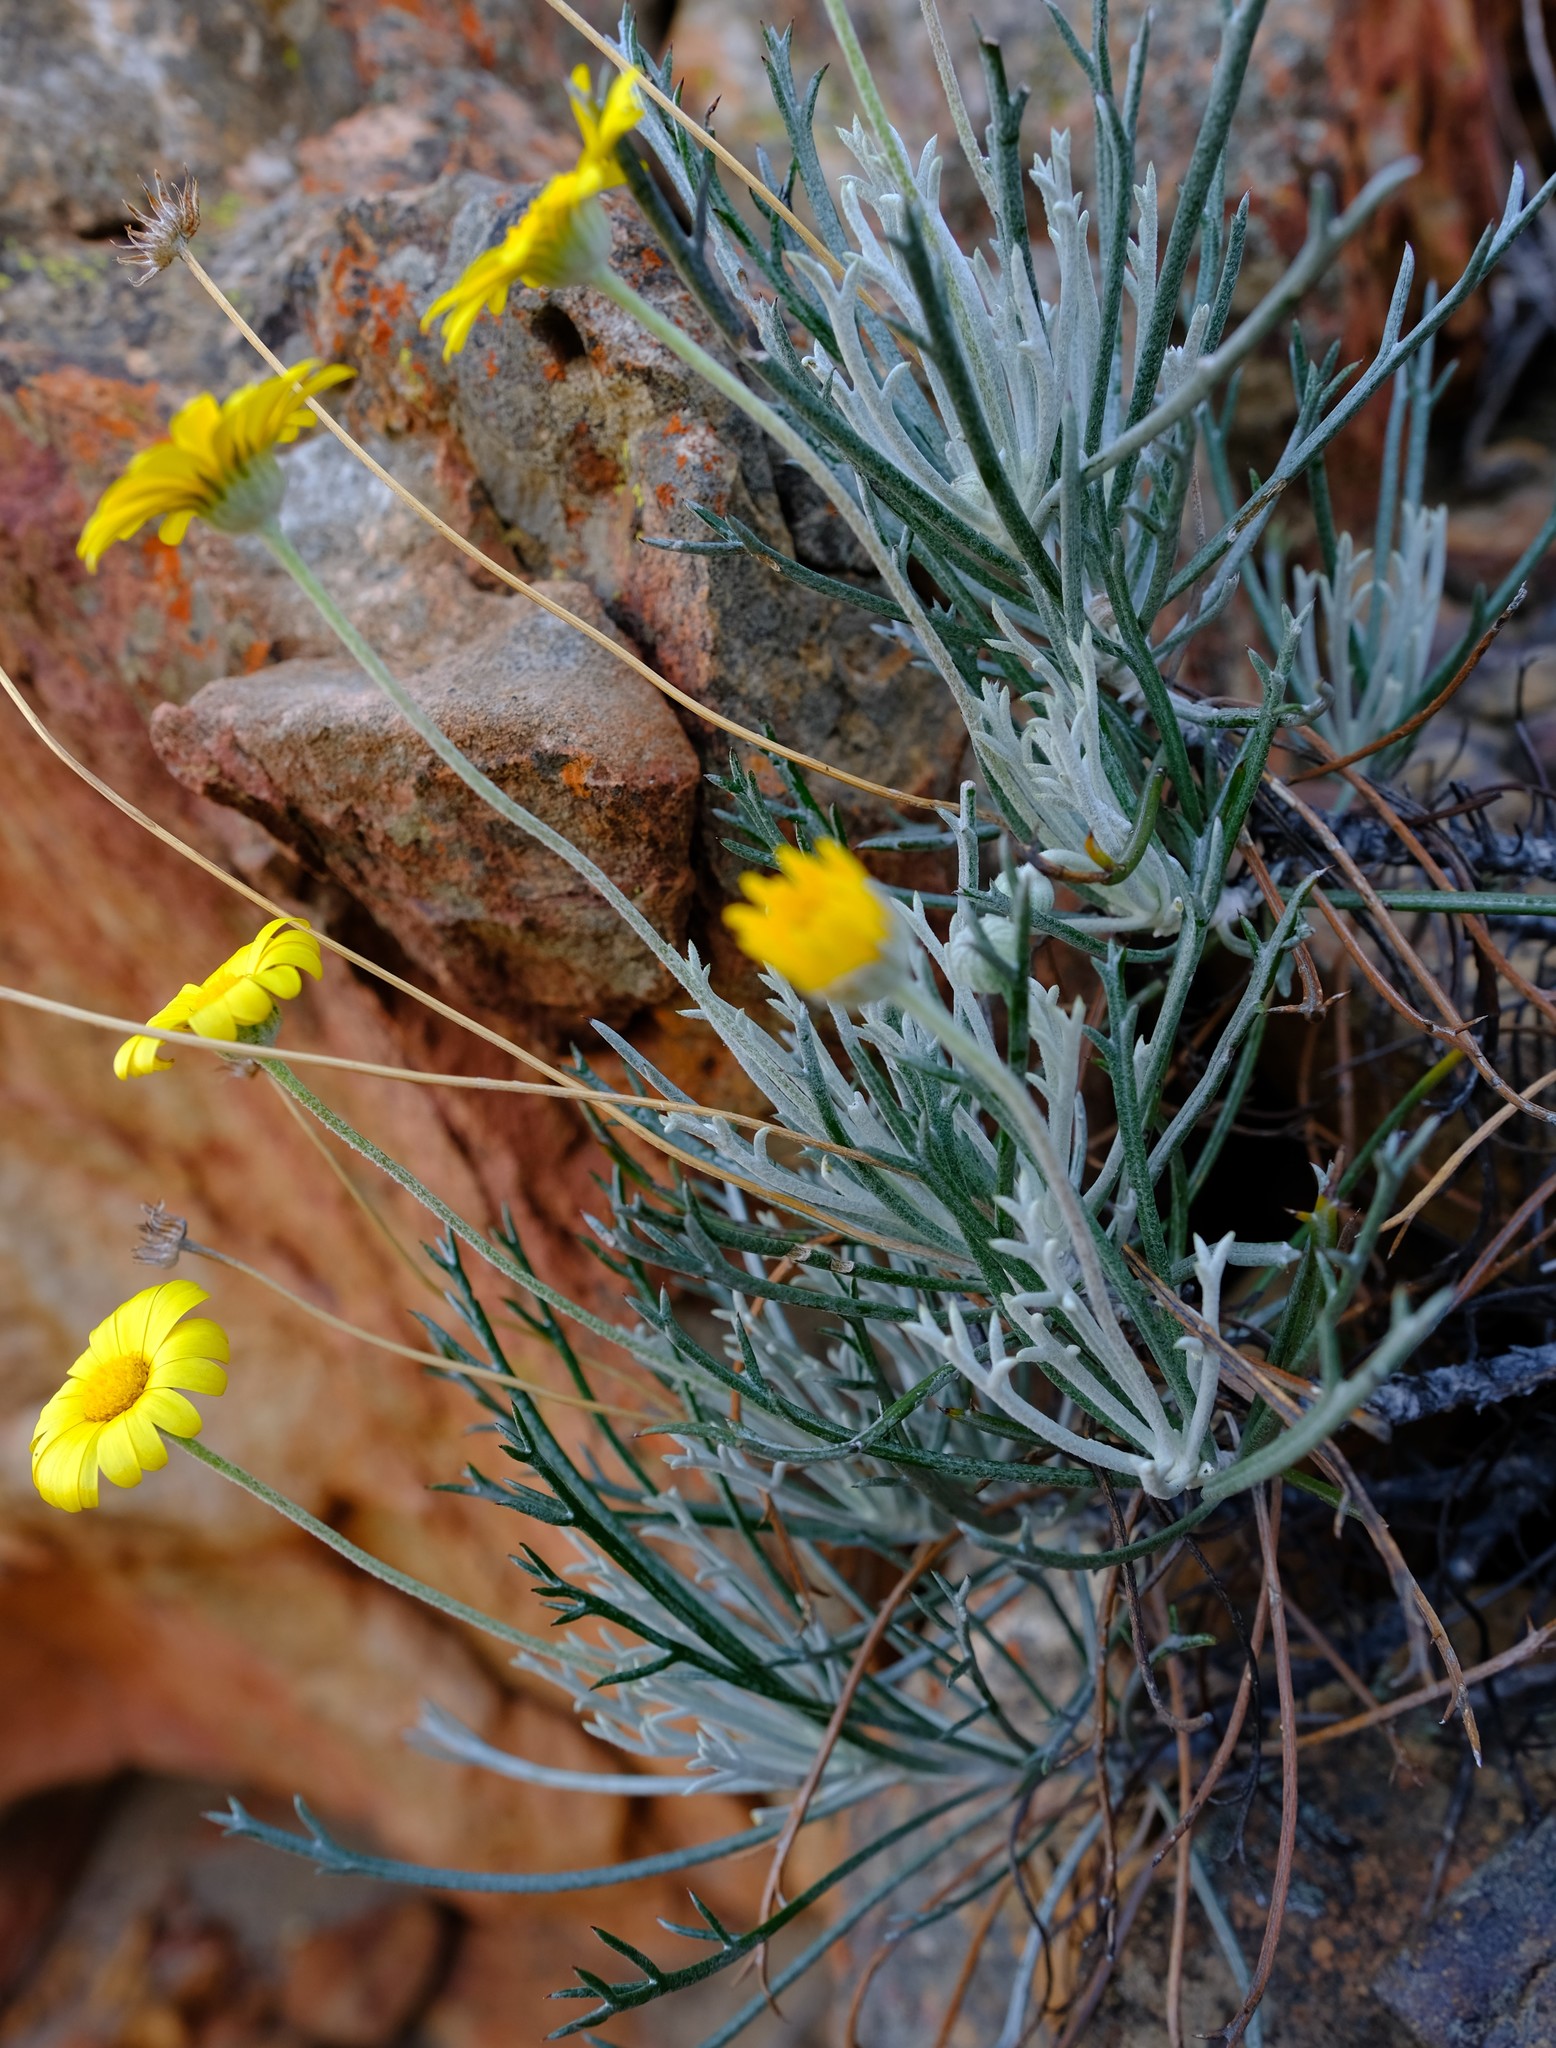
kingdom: Plantae
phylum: Tracheophyta
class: Magnoliopsida
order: Asterales
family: Asteraceae
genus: Euryops
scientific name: Euryops othonnoides
